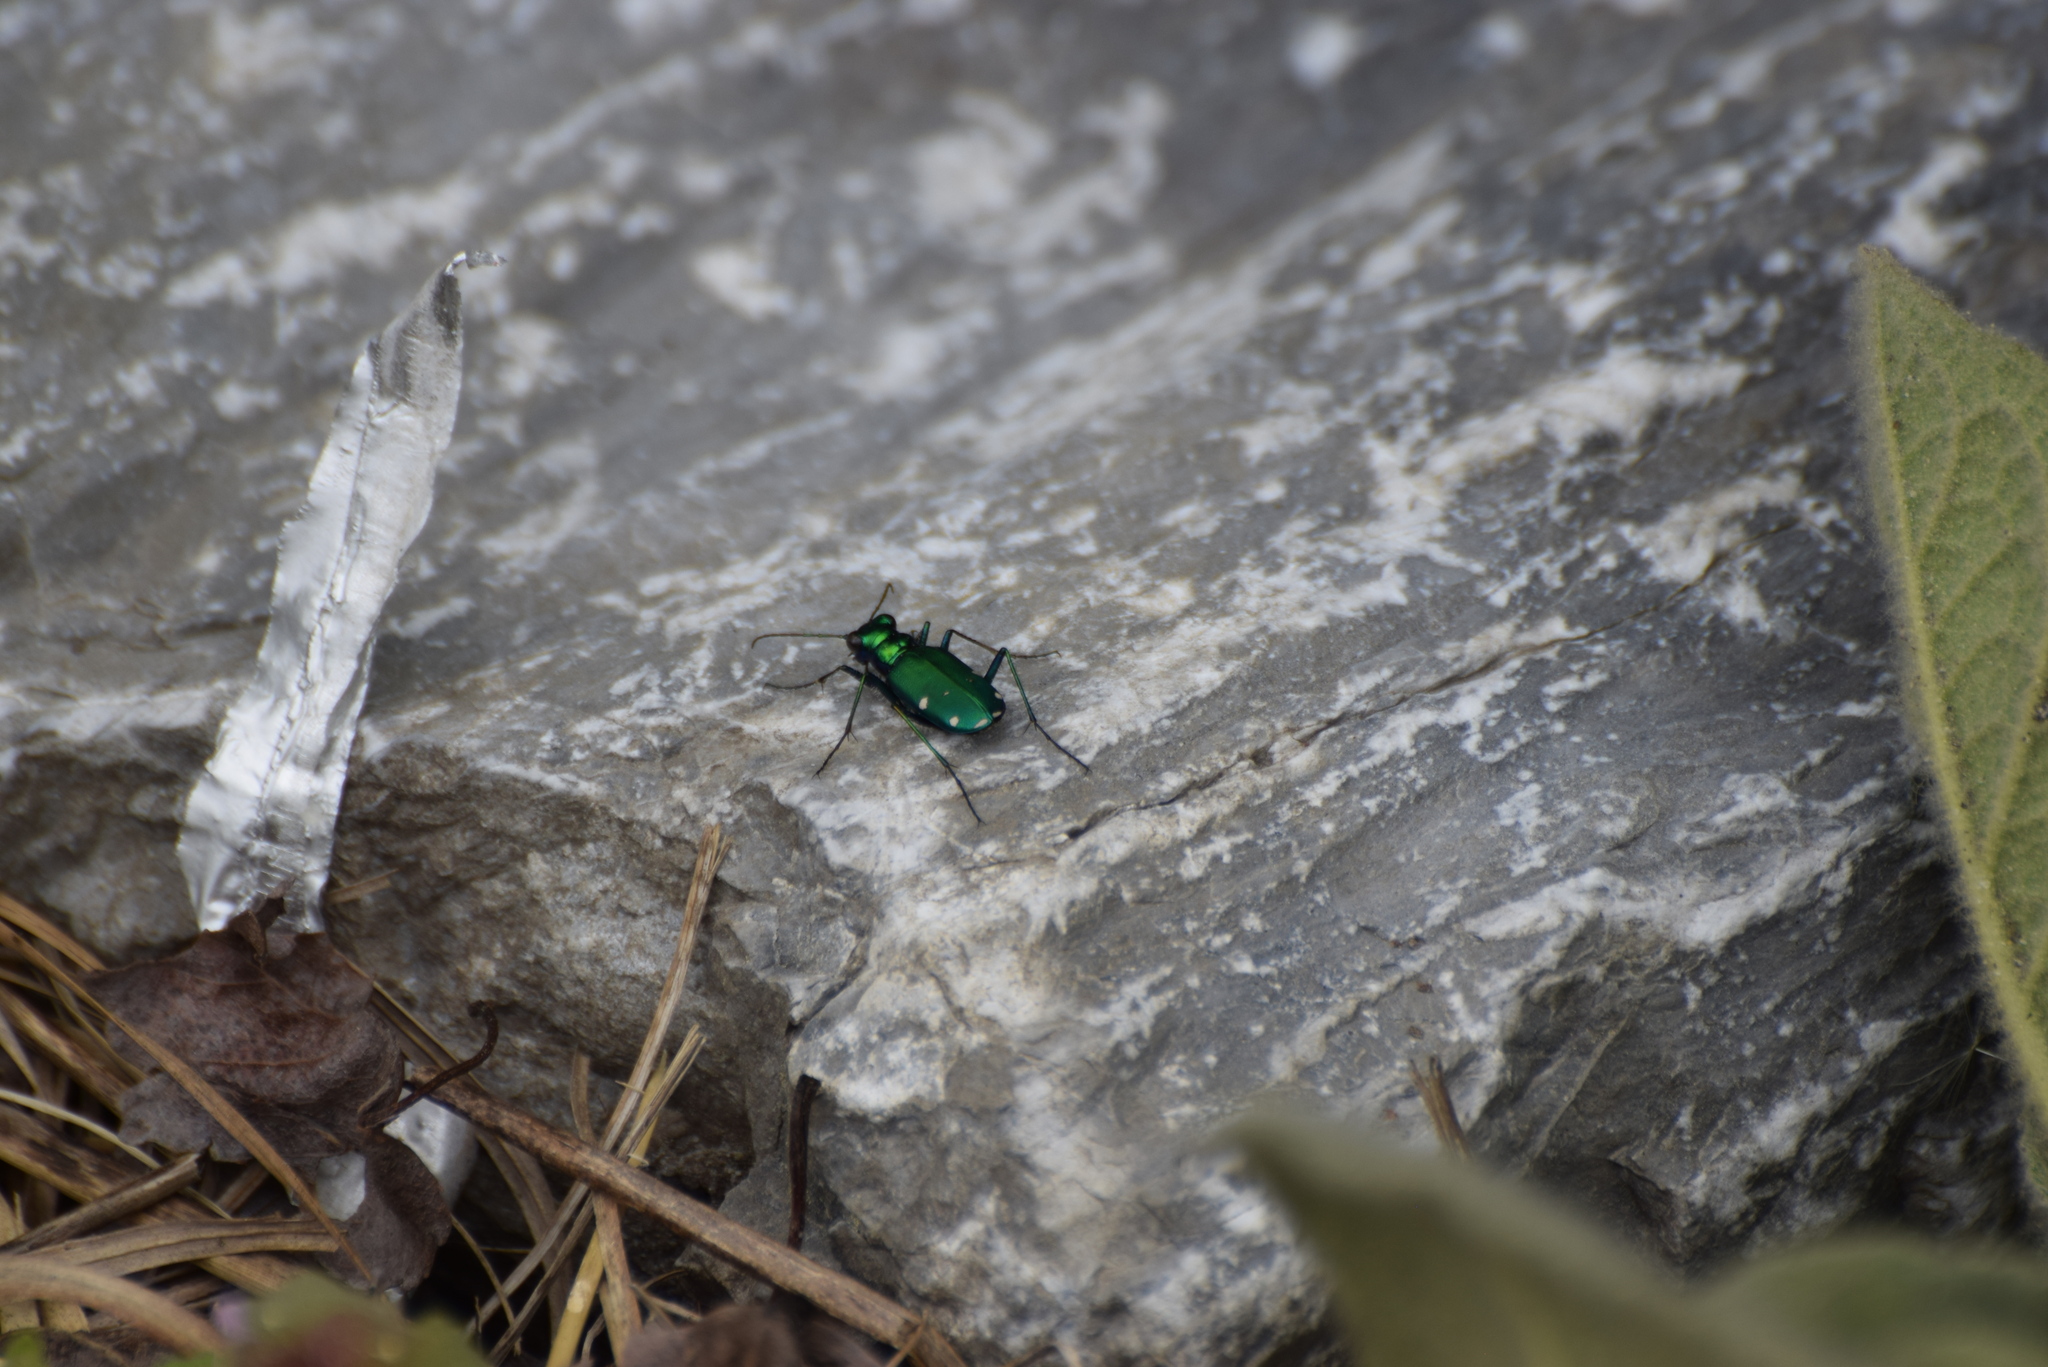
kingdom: Animalia
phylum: Arthropoda
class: Insecta
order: Coleoptera
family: Carabidae
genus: Cicindela
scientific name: Cicindela sexguttata
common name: Six-spotted tiger beetle
